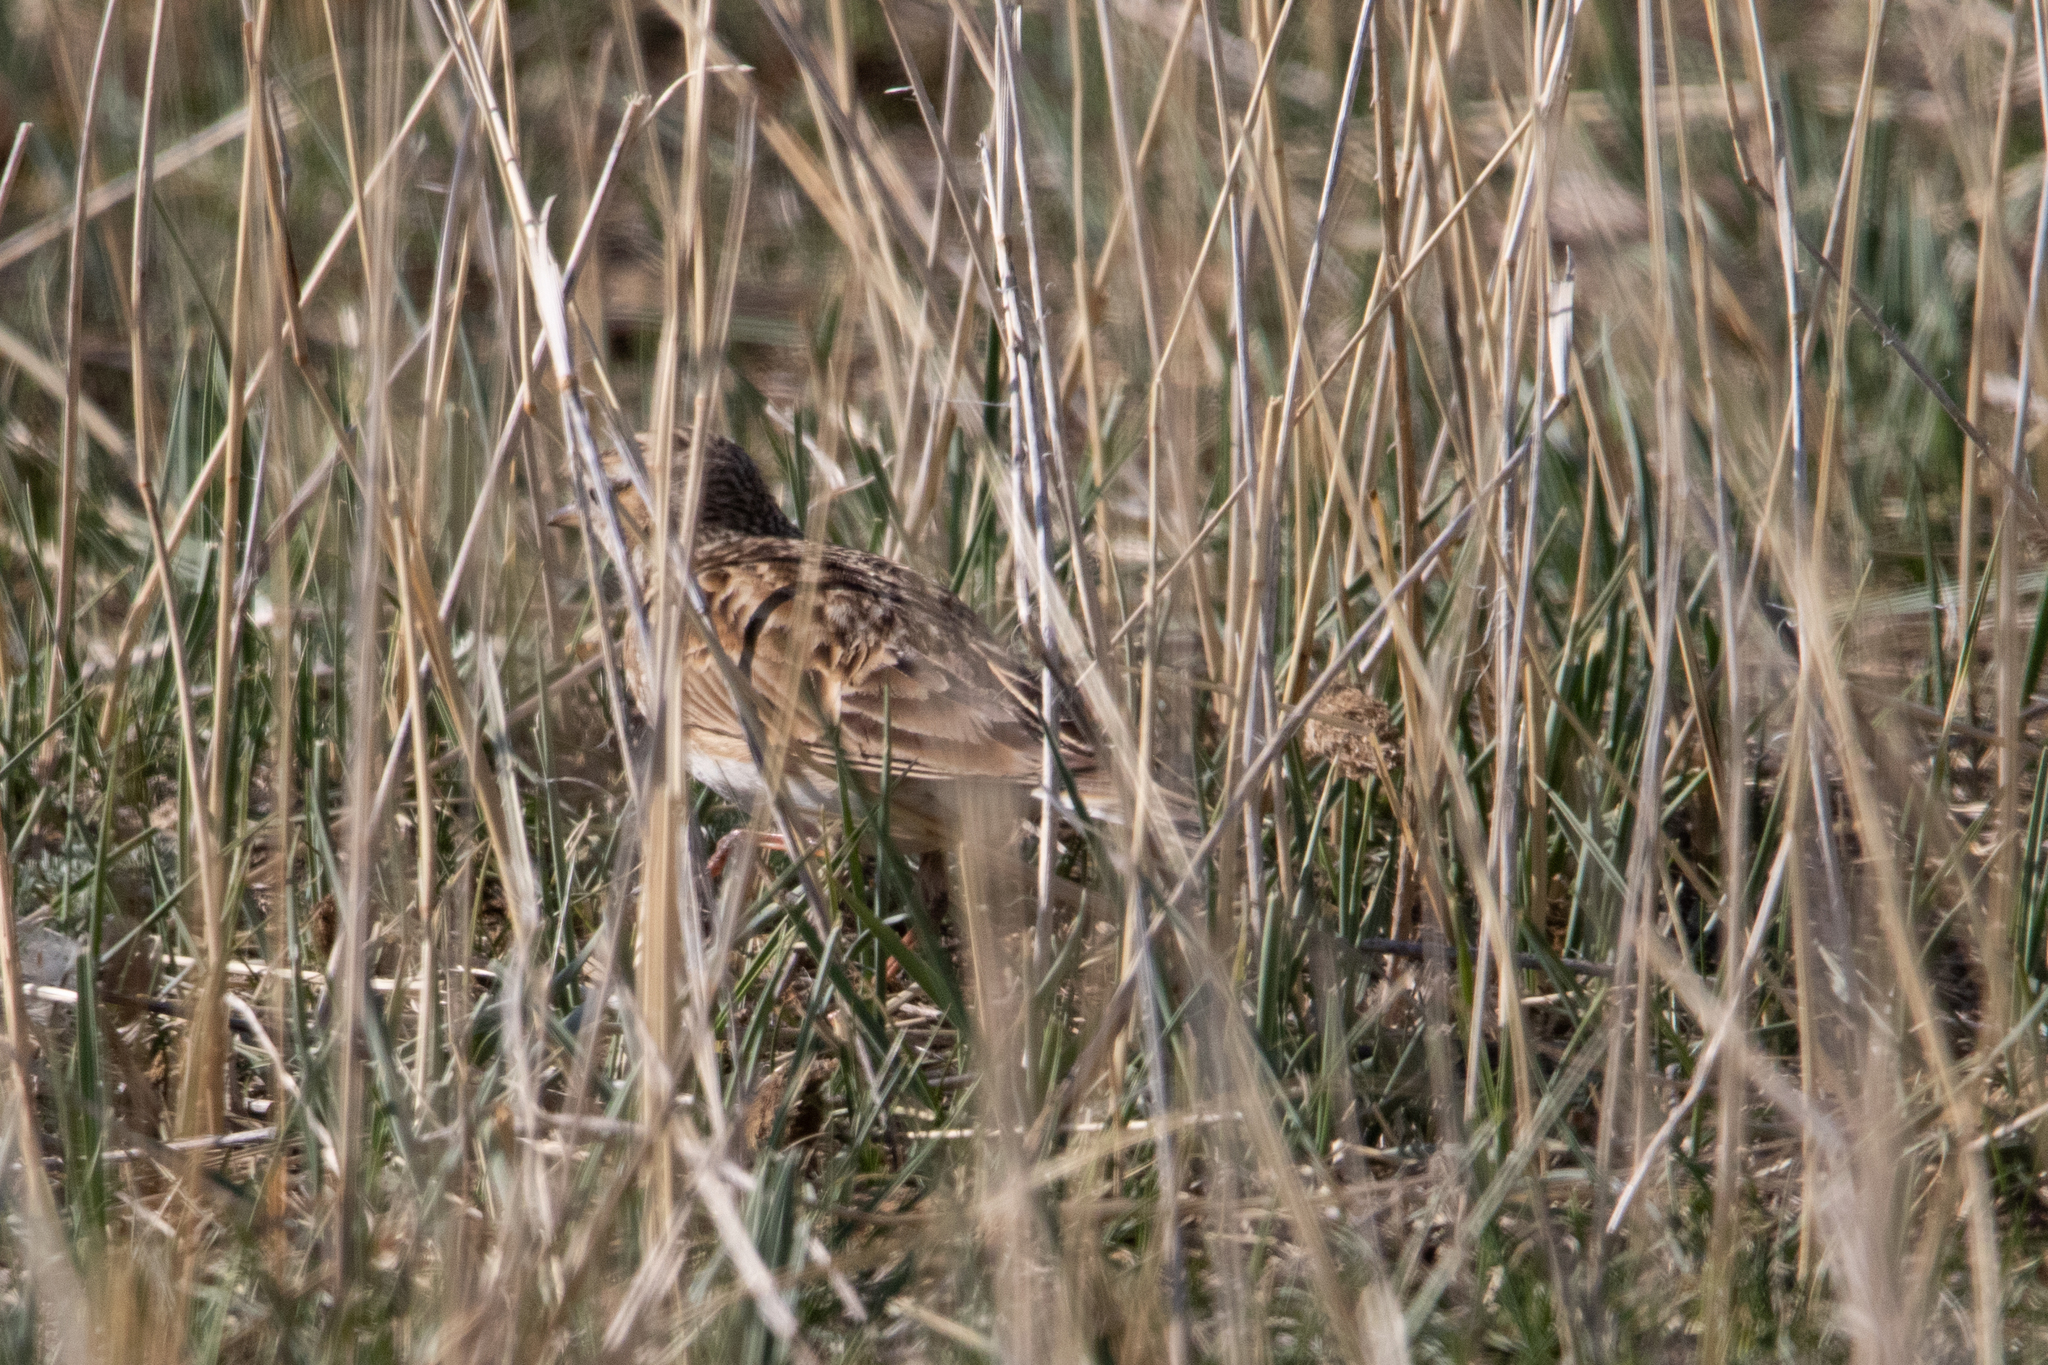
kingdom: Animalia
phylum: Chordata
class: Aves
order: Passeriformes
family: Alaudidae
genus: Alauda
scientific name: Alauda arvensis
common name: Eurasian skylark
